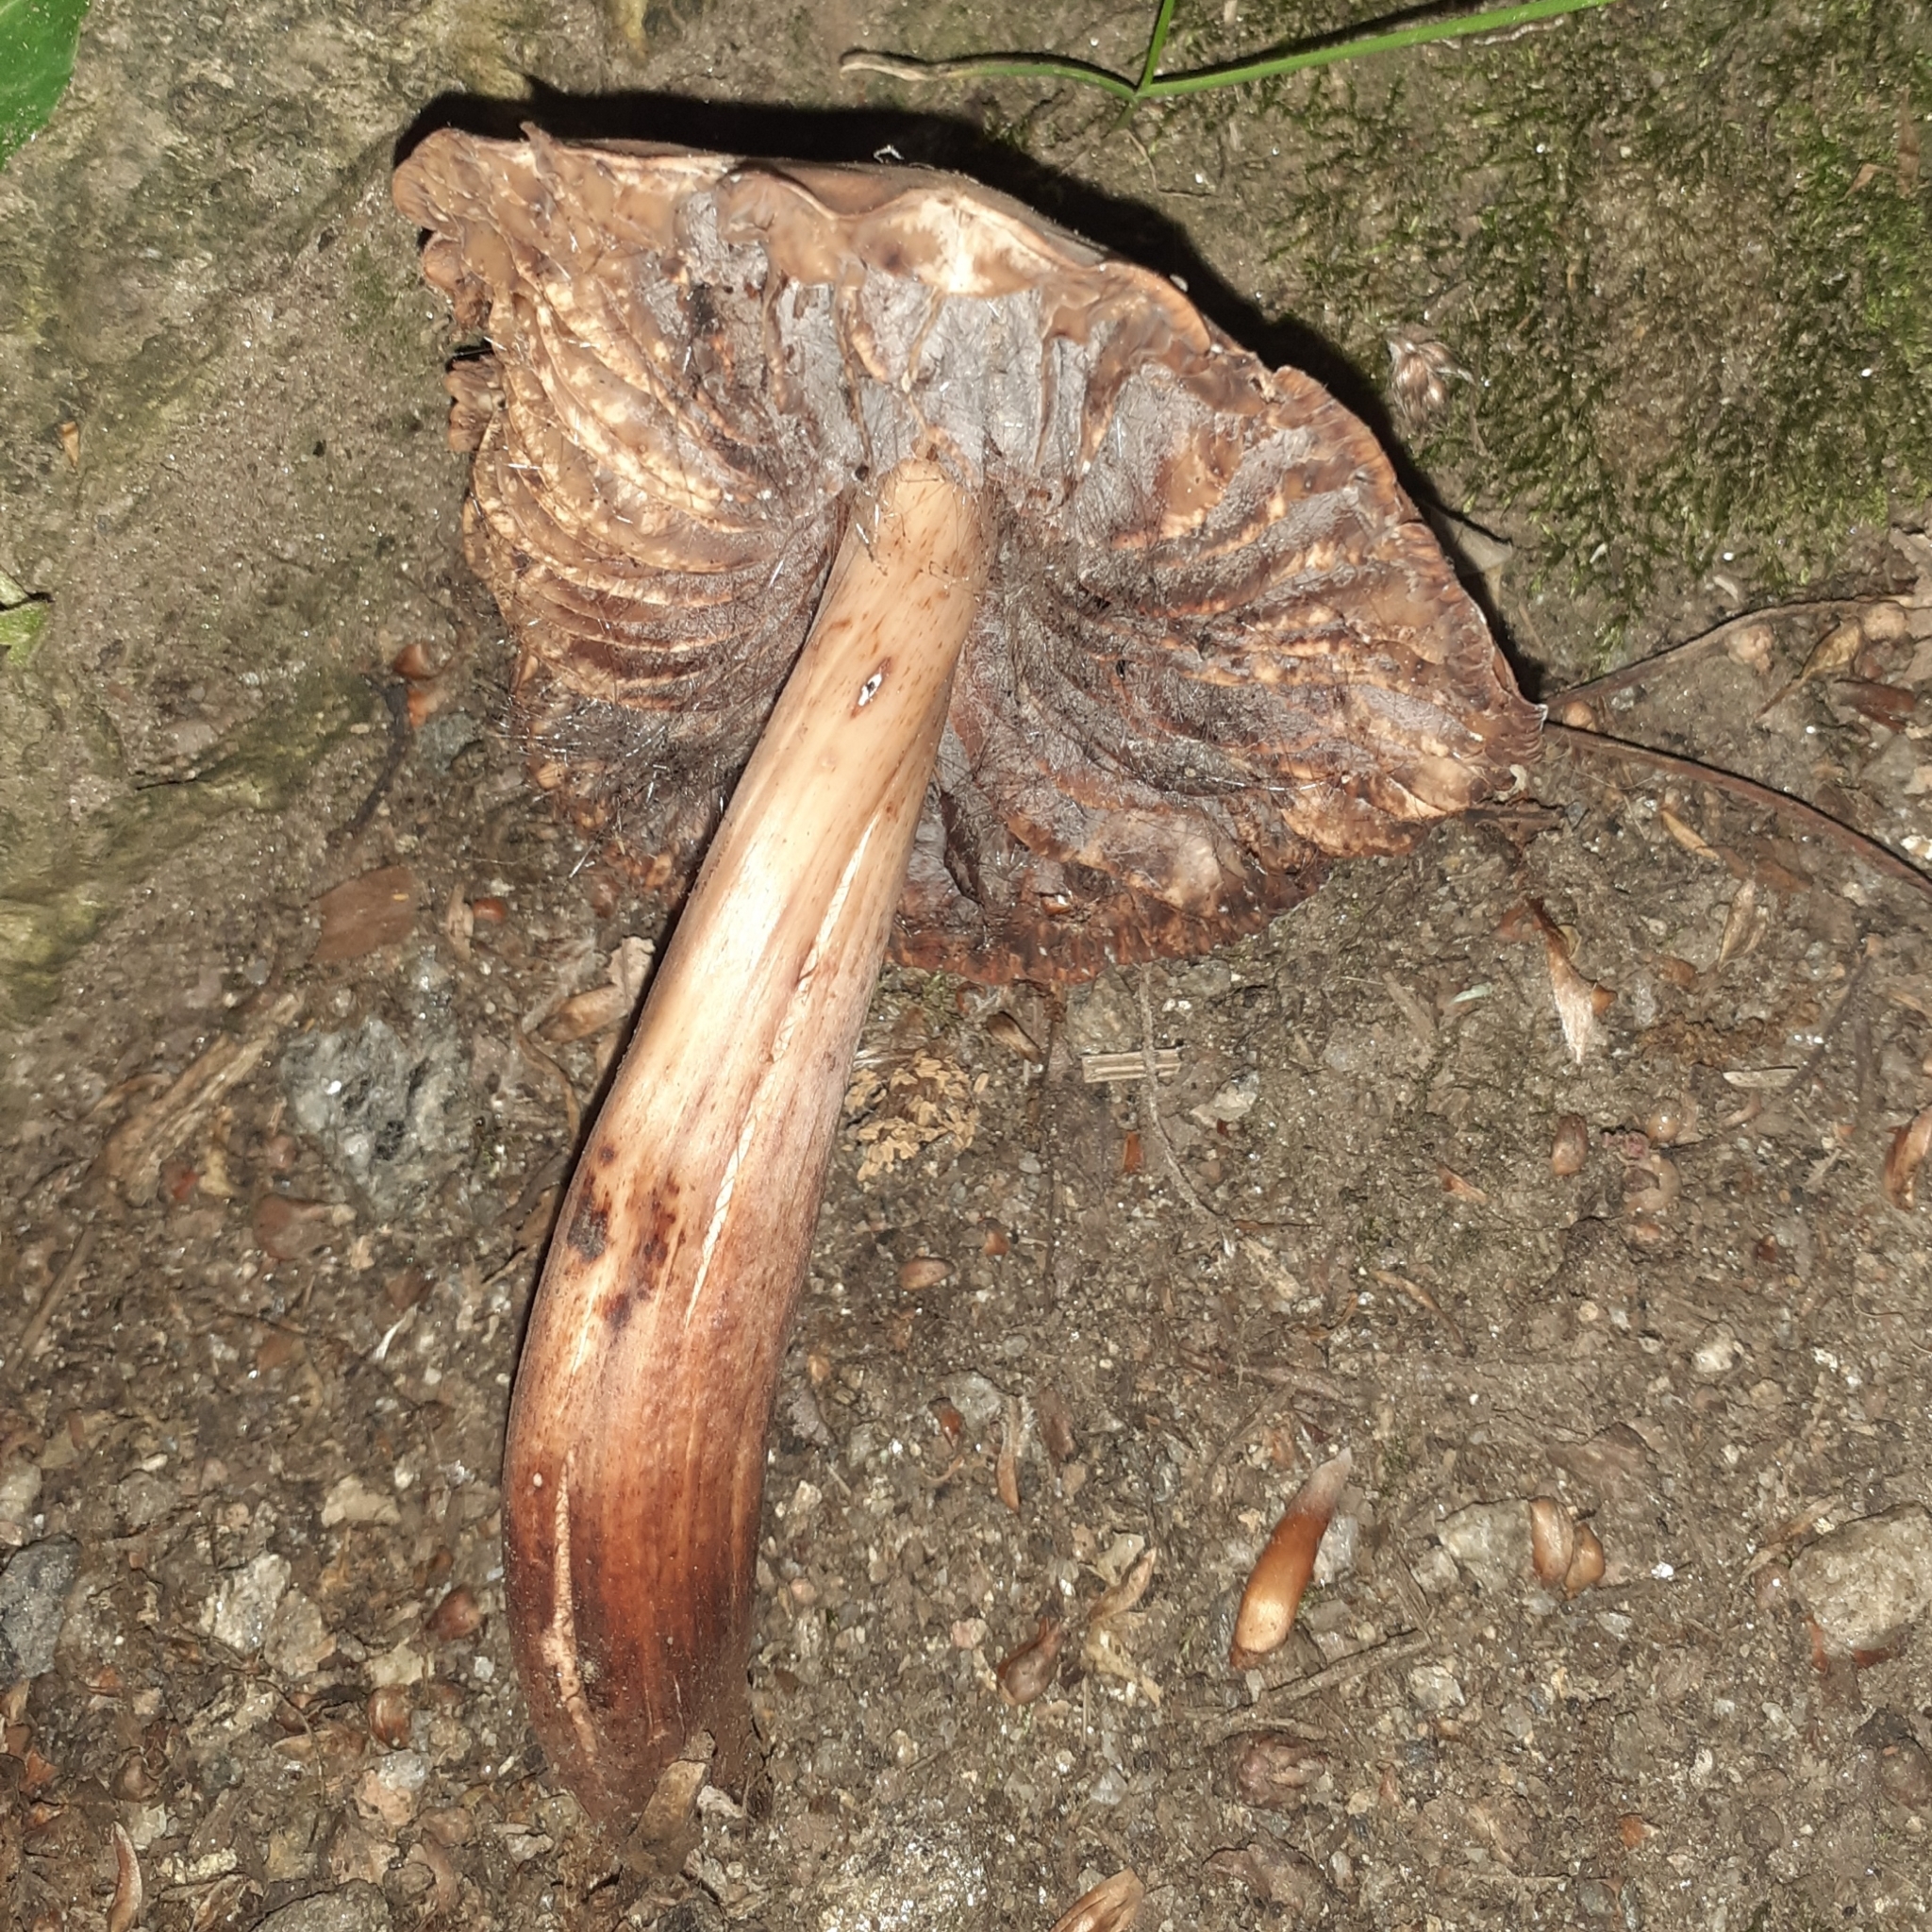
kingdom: Fungi
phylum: Basidiomycota
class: Agaricomycetes
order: Agaricales
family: Omphalotaceae
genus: Gymnopus
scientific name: Gymnopus fusipes
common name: Spindle shank
